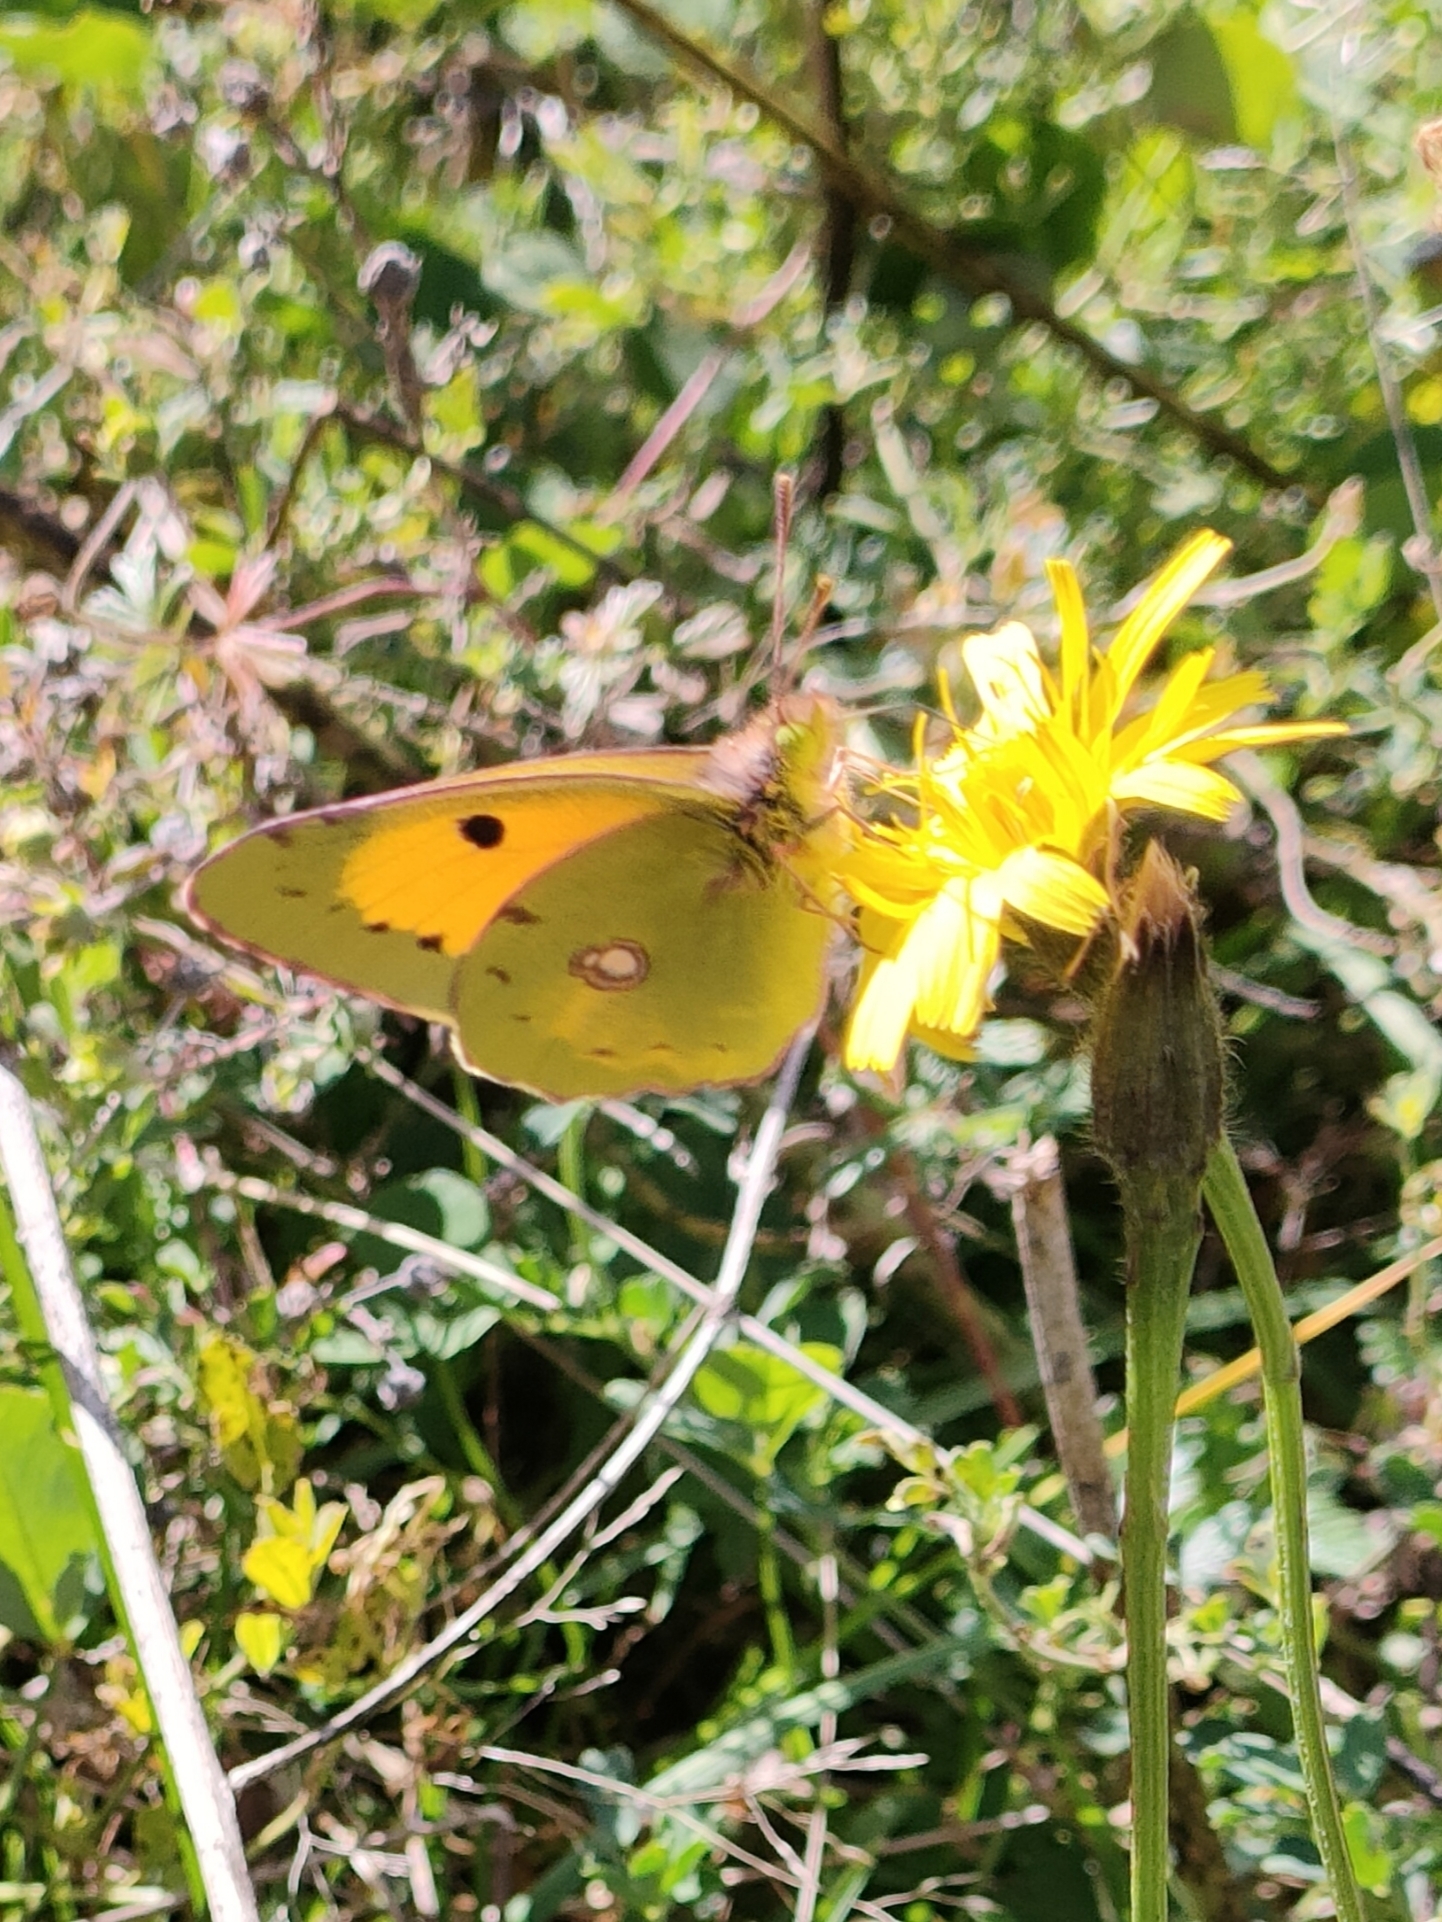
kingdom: Animalia
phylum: Arthropoda
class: Insecta
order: Lepidoptera
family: Pieridae
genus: Colias
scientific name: Colias croceus
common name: Clouded yellow
